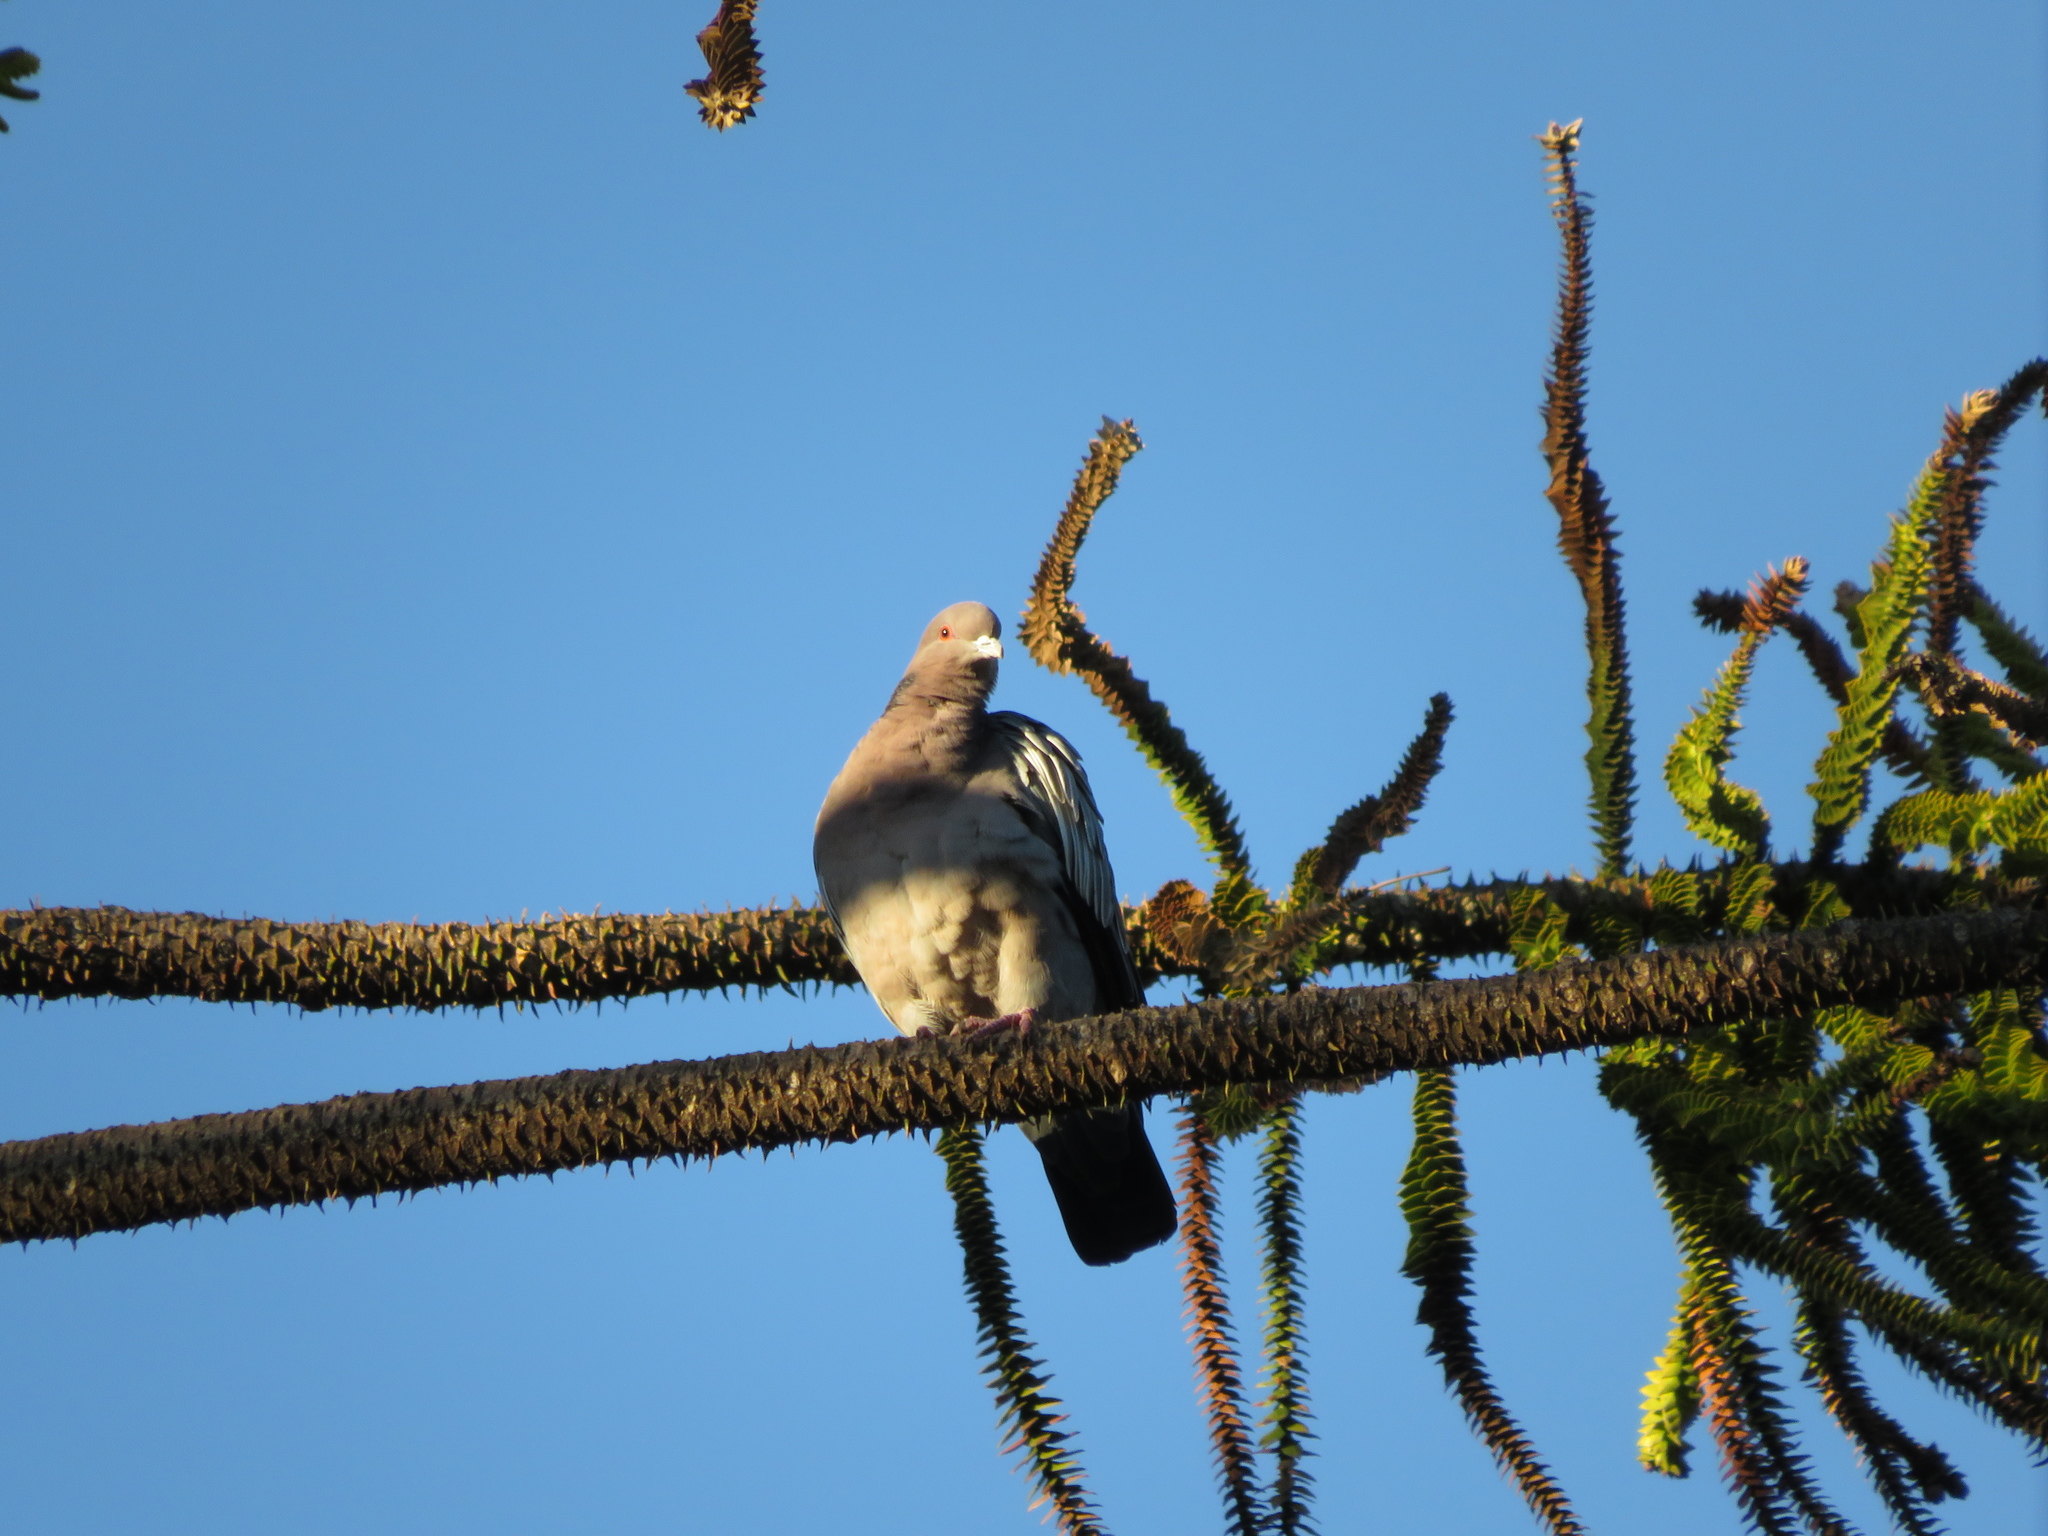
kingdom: Animalia
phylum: Chordata
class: Aves
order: Columbiformes
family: Columbidae
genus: Patagioenas
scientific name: Patagioenas picazuro
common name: Picazuro pigeon
